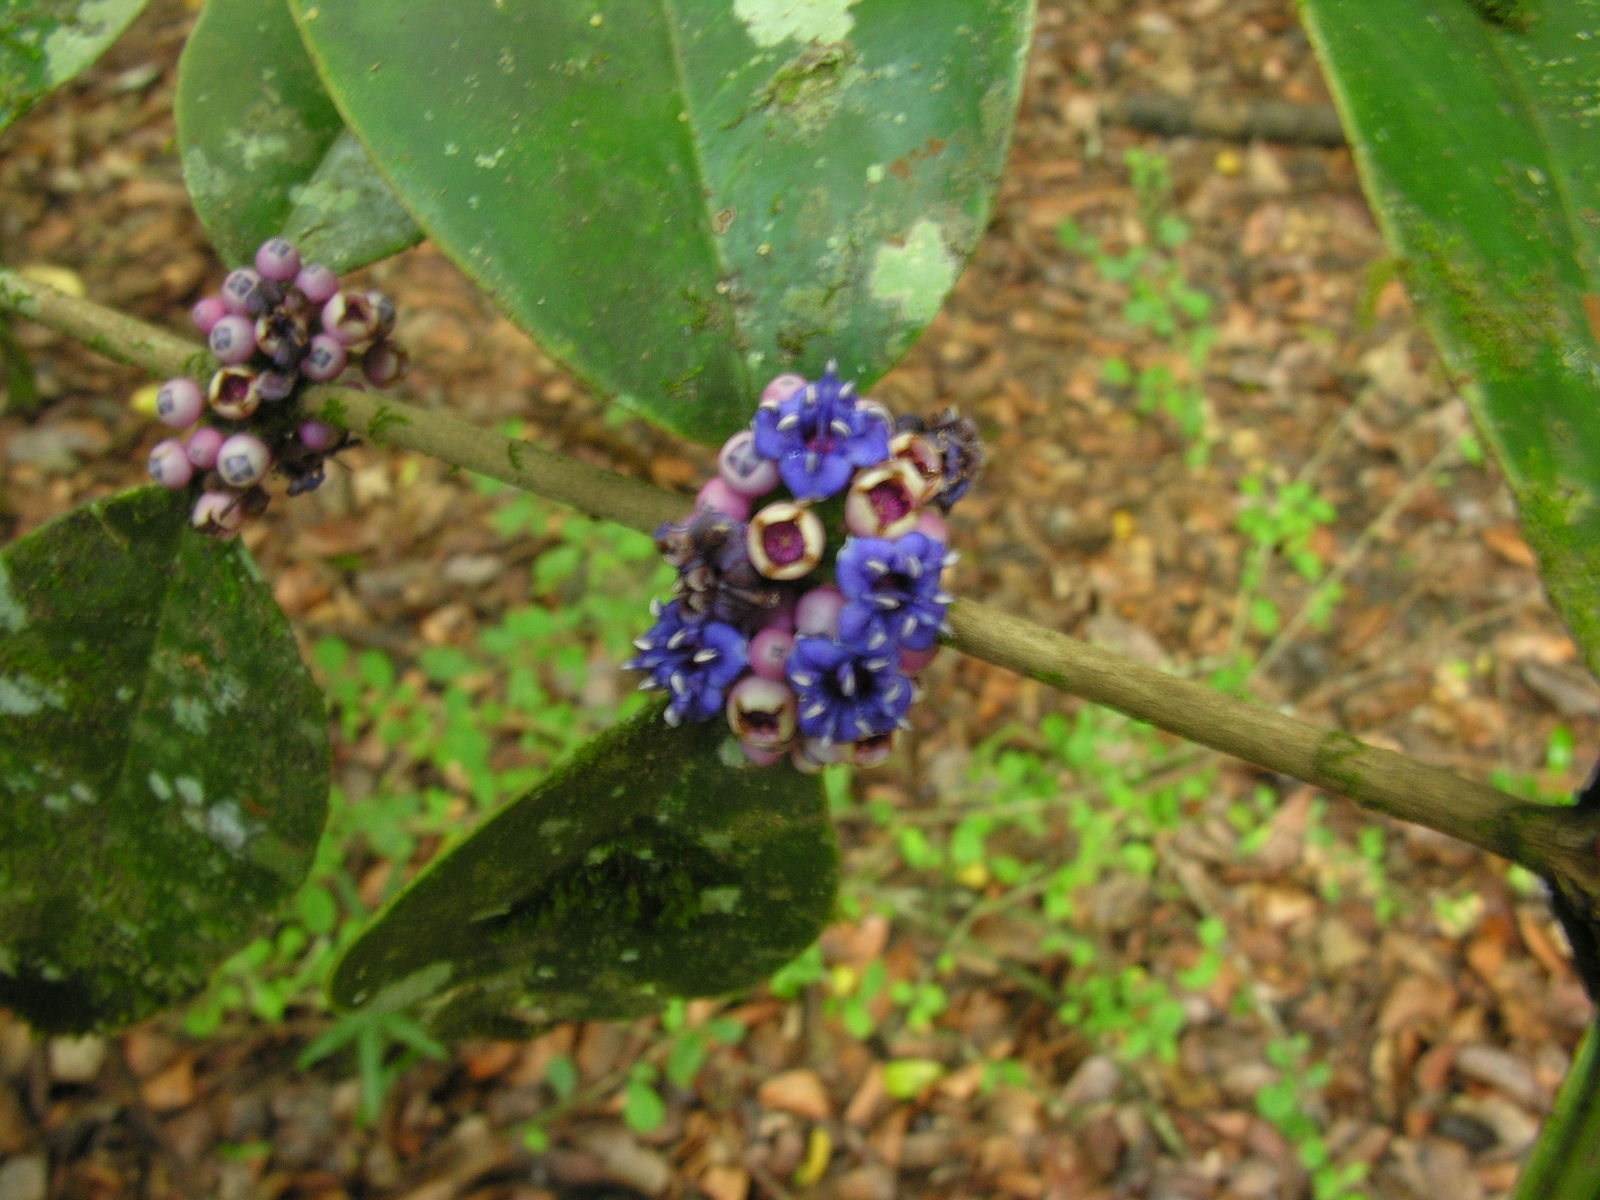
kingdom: Plantae
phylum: Tracheophyta
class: Magnoliopsida
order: Myrtales
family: Melastomataceae
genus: Memecylon
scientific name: Memecylon caeruleum
